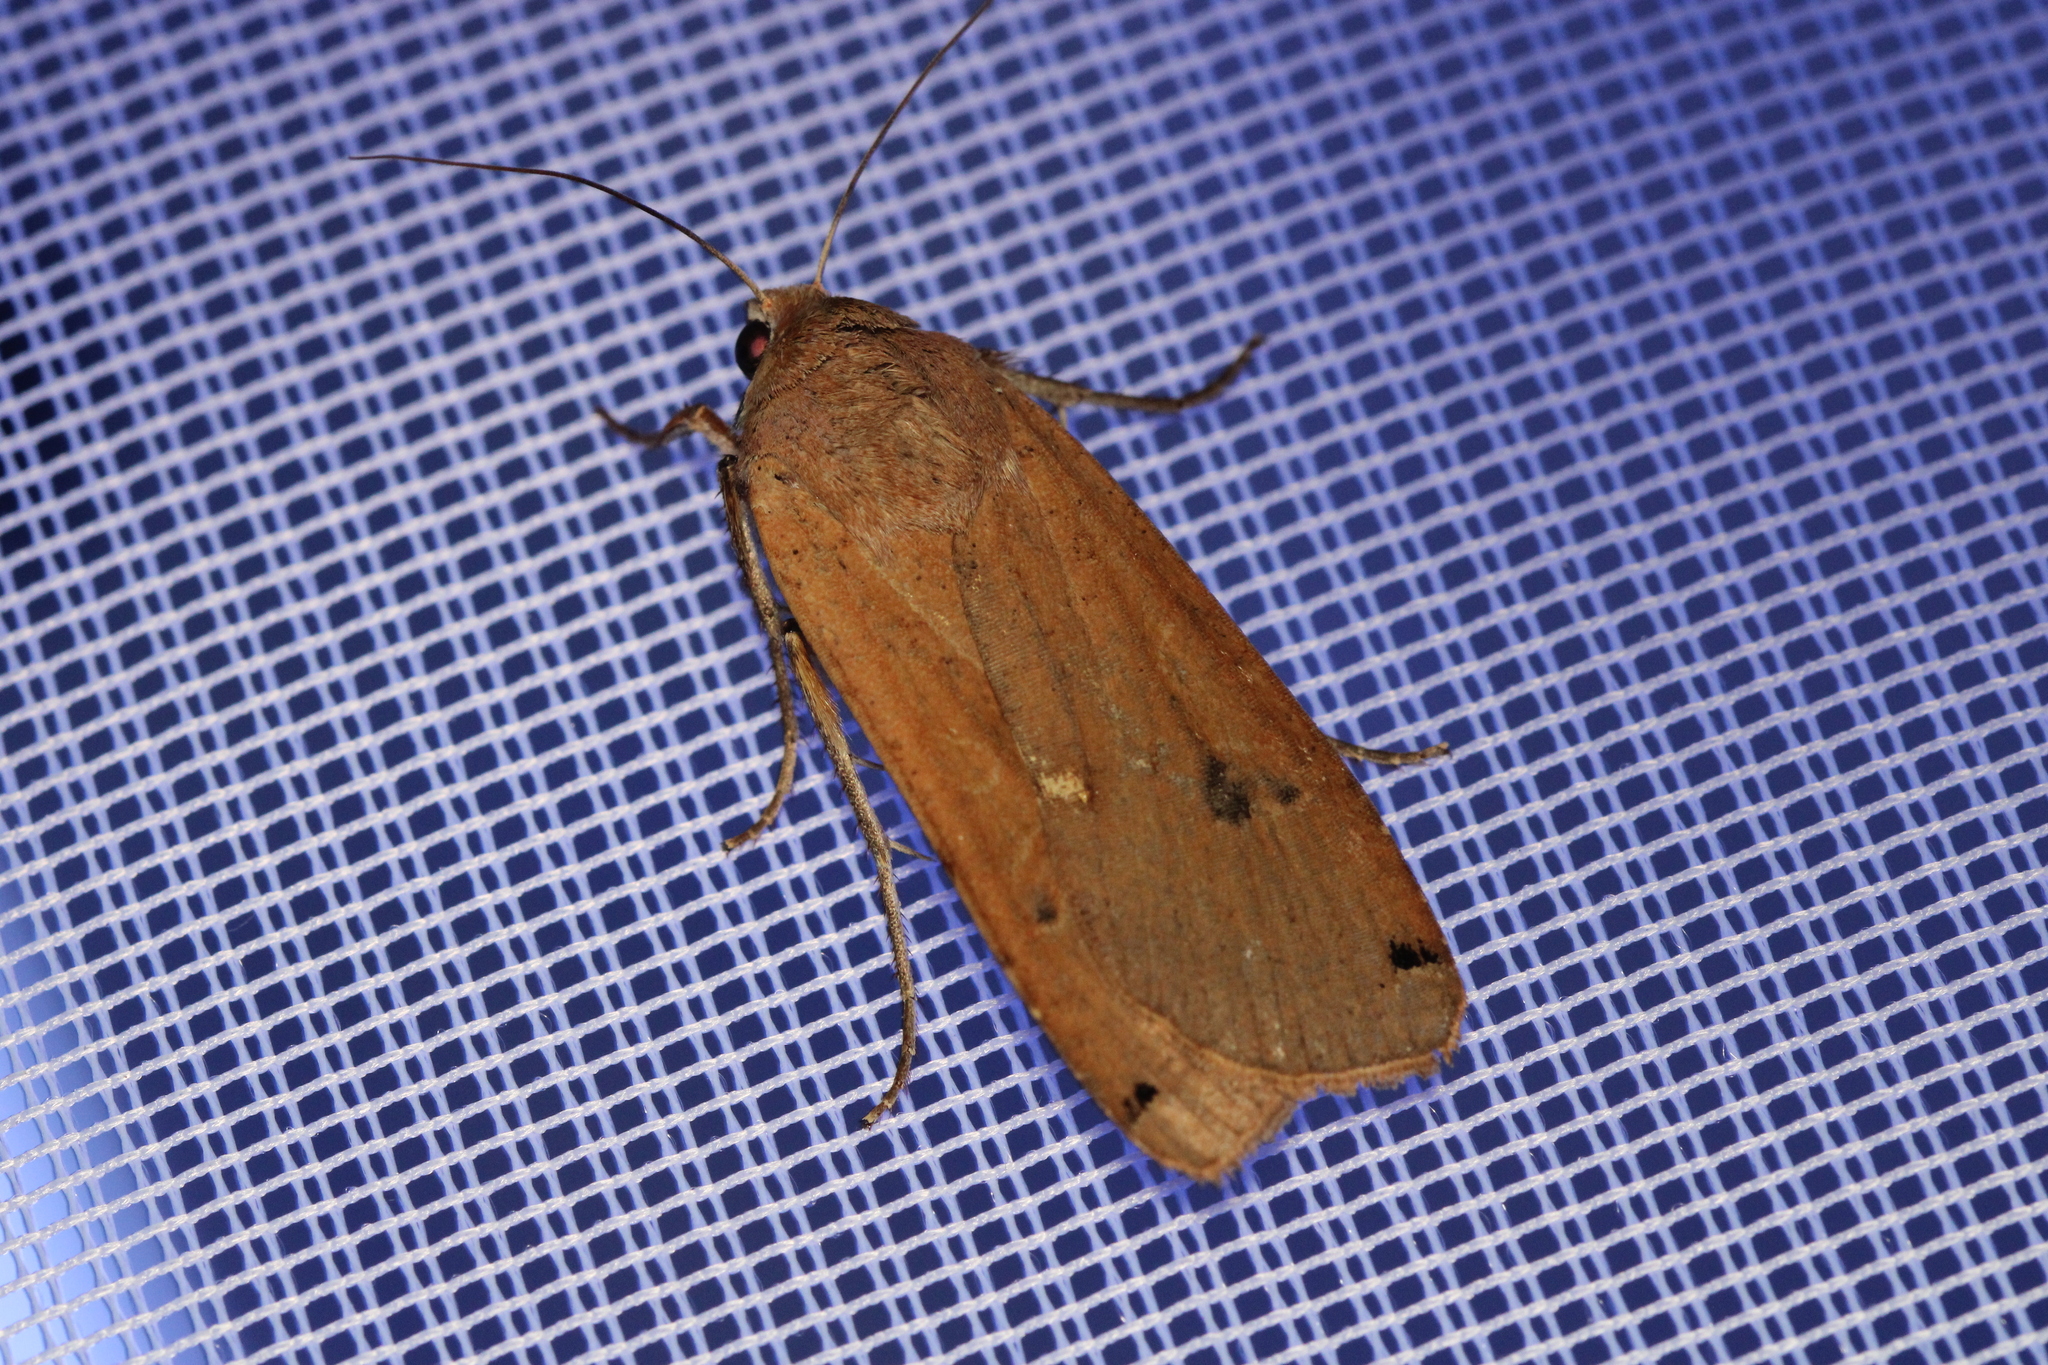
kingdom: Animalia
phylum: Arthropoda
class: Insecta
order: Lepidoptera
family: Noctuidae
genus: Noctua
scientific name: Noctua pronuba
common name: Large yellow underwing
